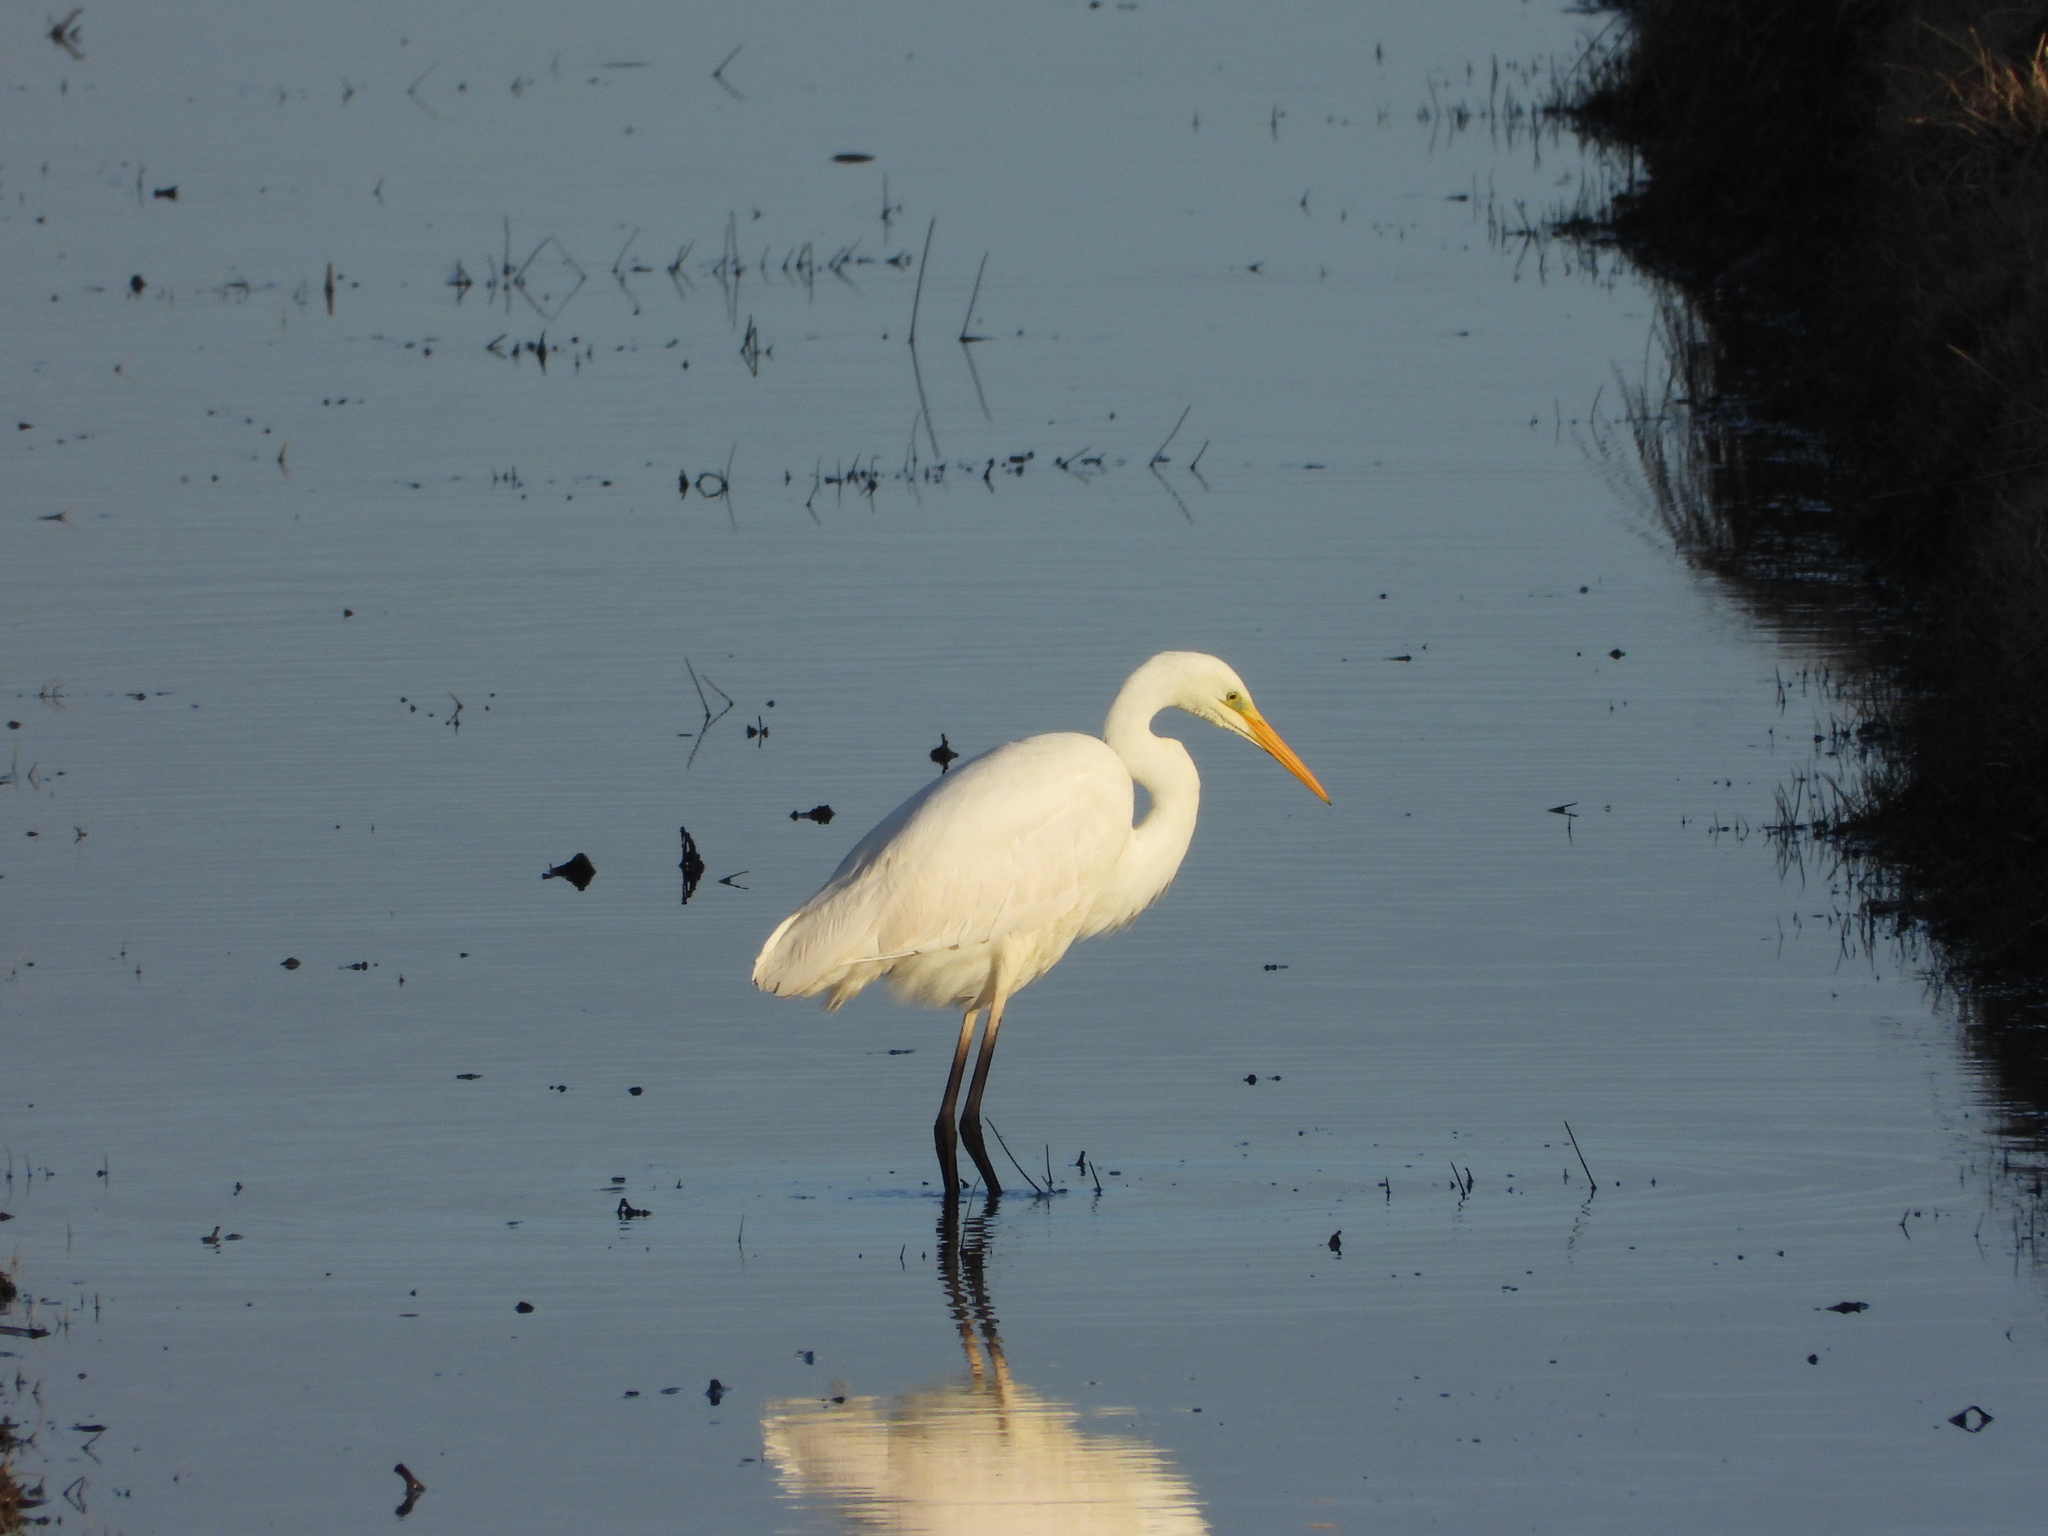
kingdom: Animalia
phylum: Chordata
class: Aves
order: Pelecaniformes
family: Ardeidae
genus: Ardea
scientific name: Ardea alba
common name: Great egret
